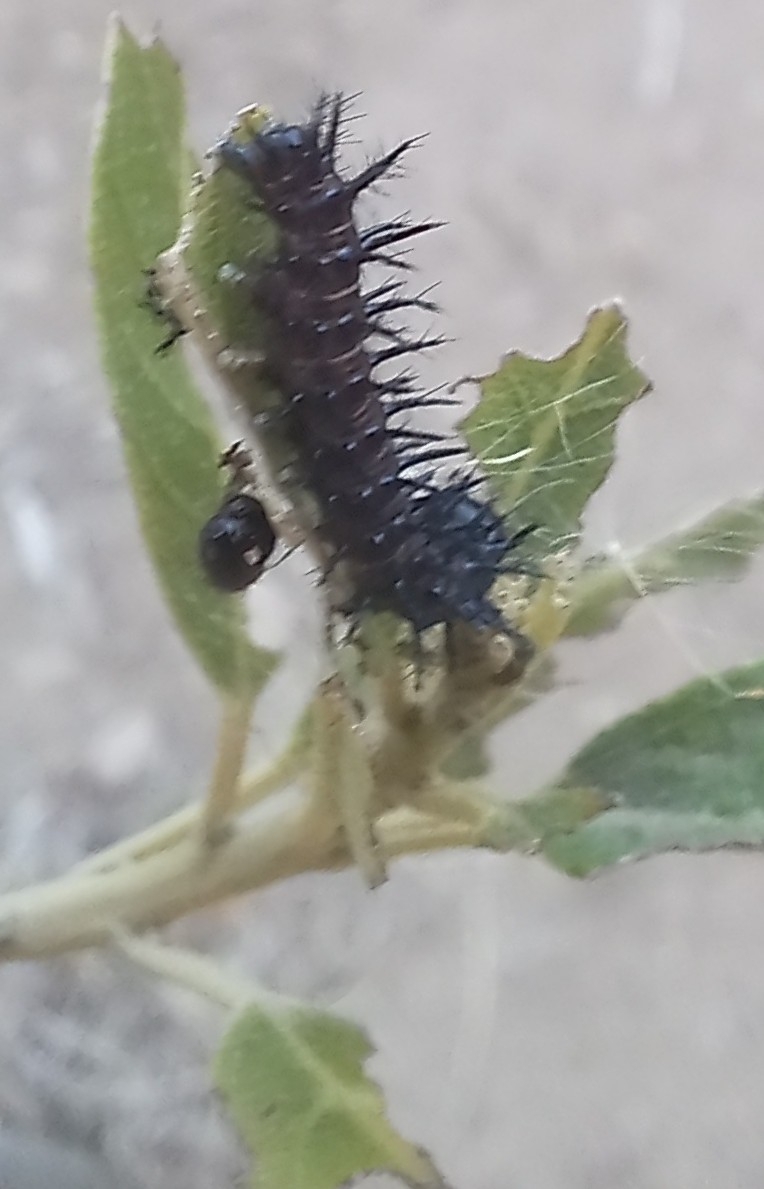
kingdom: Animalia
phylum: Arthropoda
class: Insecta
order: Lepidoptera
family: Nymphalidae
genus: Acraea
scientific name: Acraea horta
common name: Garden acraea
